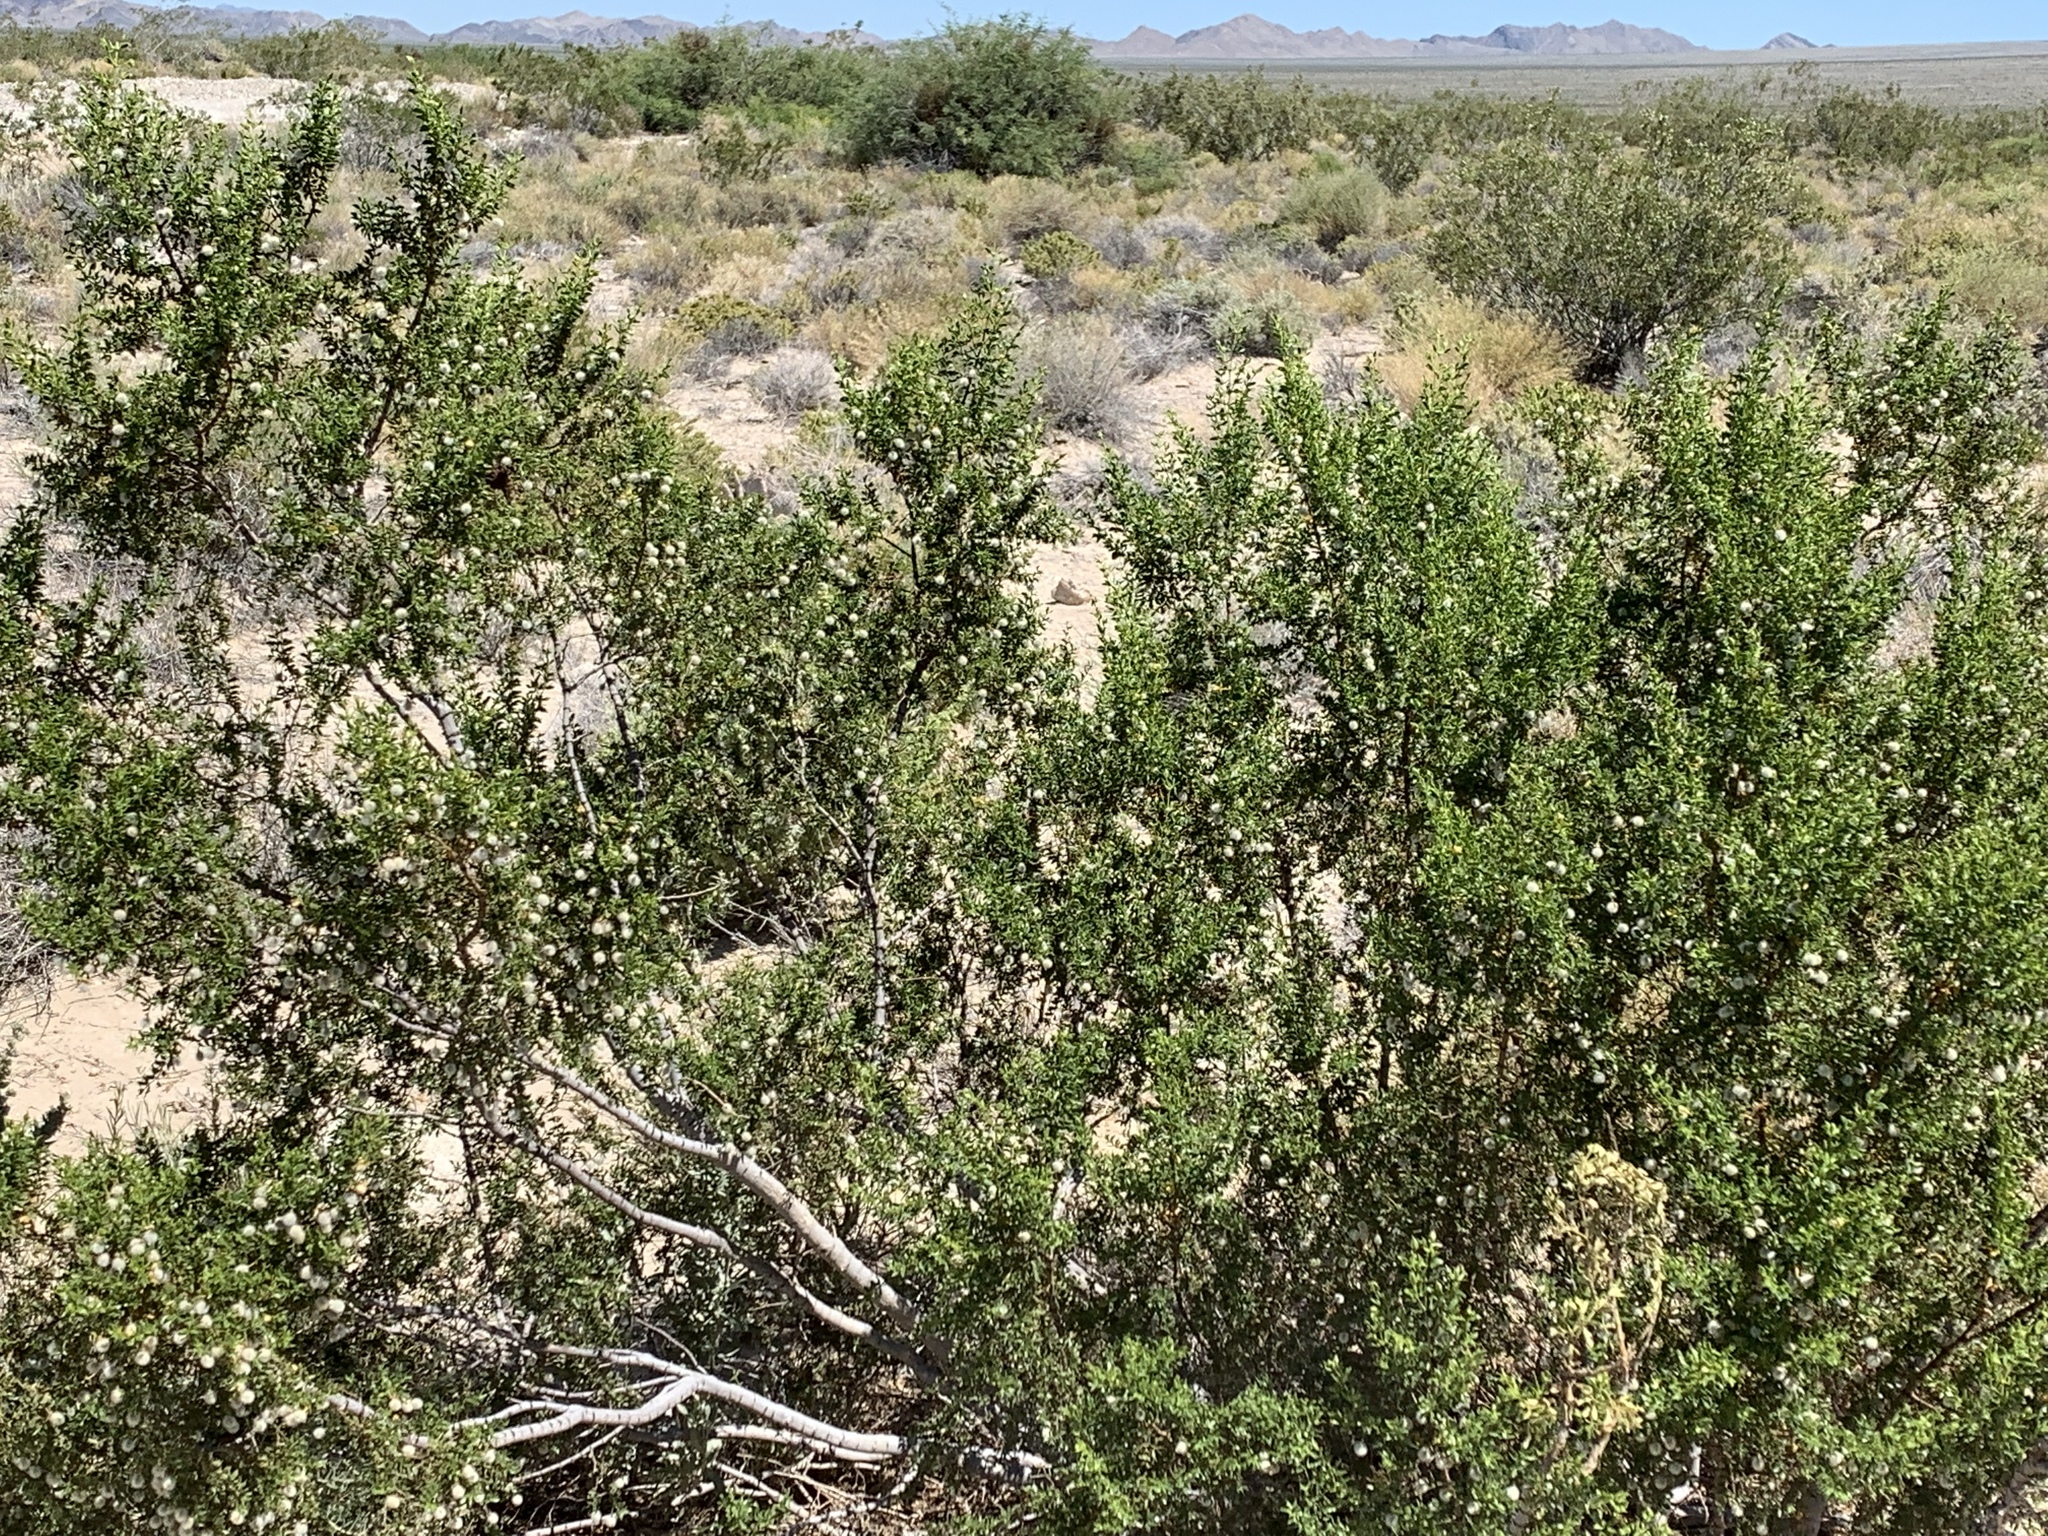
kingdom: Plantae
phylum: Tracheophyta
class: Magnoliopsida
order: Zygophyllales
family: Zygophyllaceae
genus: Larrea
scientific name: Larrea tridentata
